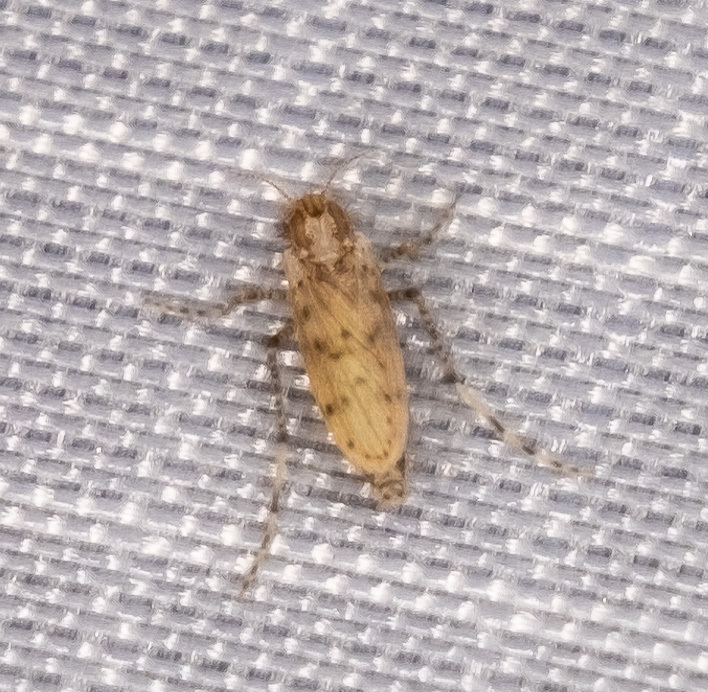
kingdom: Animalia
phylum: Arthropoda
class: Insecta
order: Diptera
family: Chaoboridae
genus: Chaoborus
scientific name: Chaoborus punctipennis
